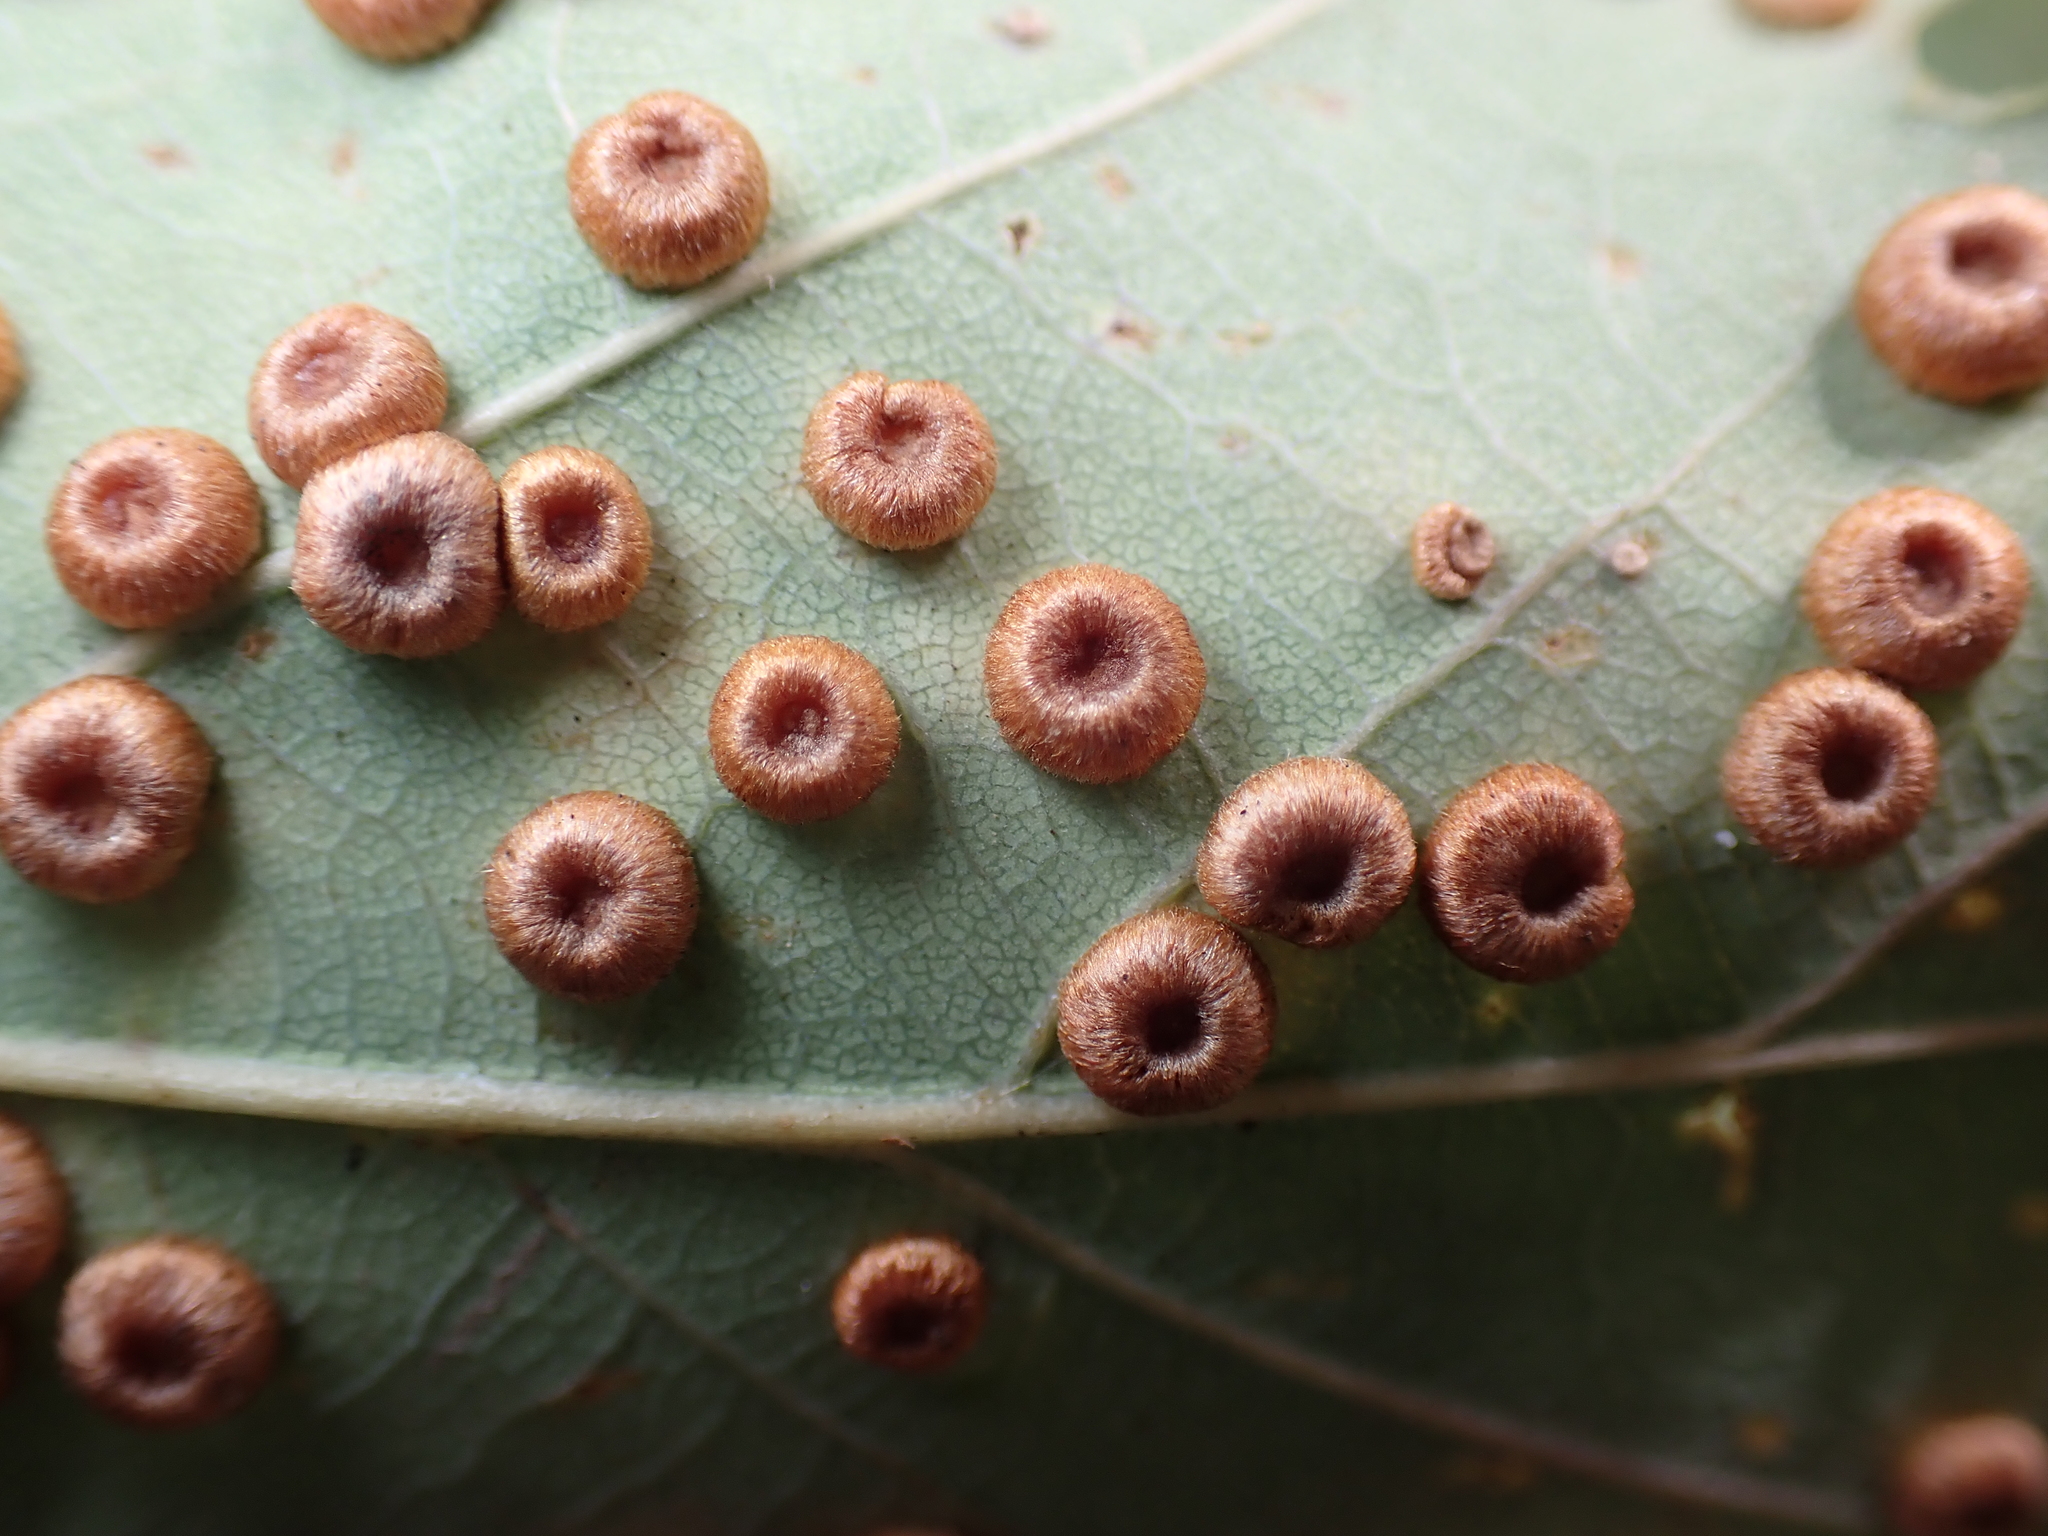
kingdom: Animalia
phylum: Arthropoda
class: Insecta
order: Hymenoptera
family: Cynipidae
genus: Neuroterus
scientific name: Neuroterus numismalis
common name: Silk-button spangle gall
